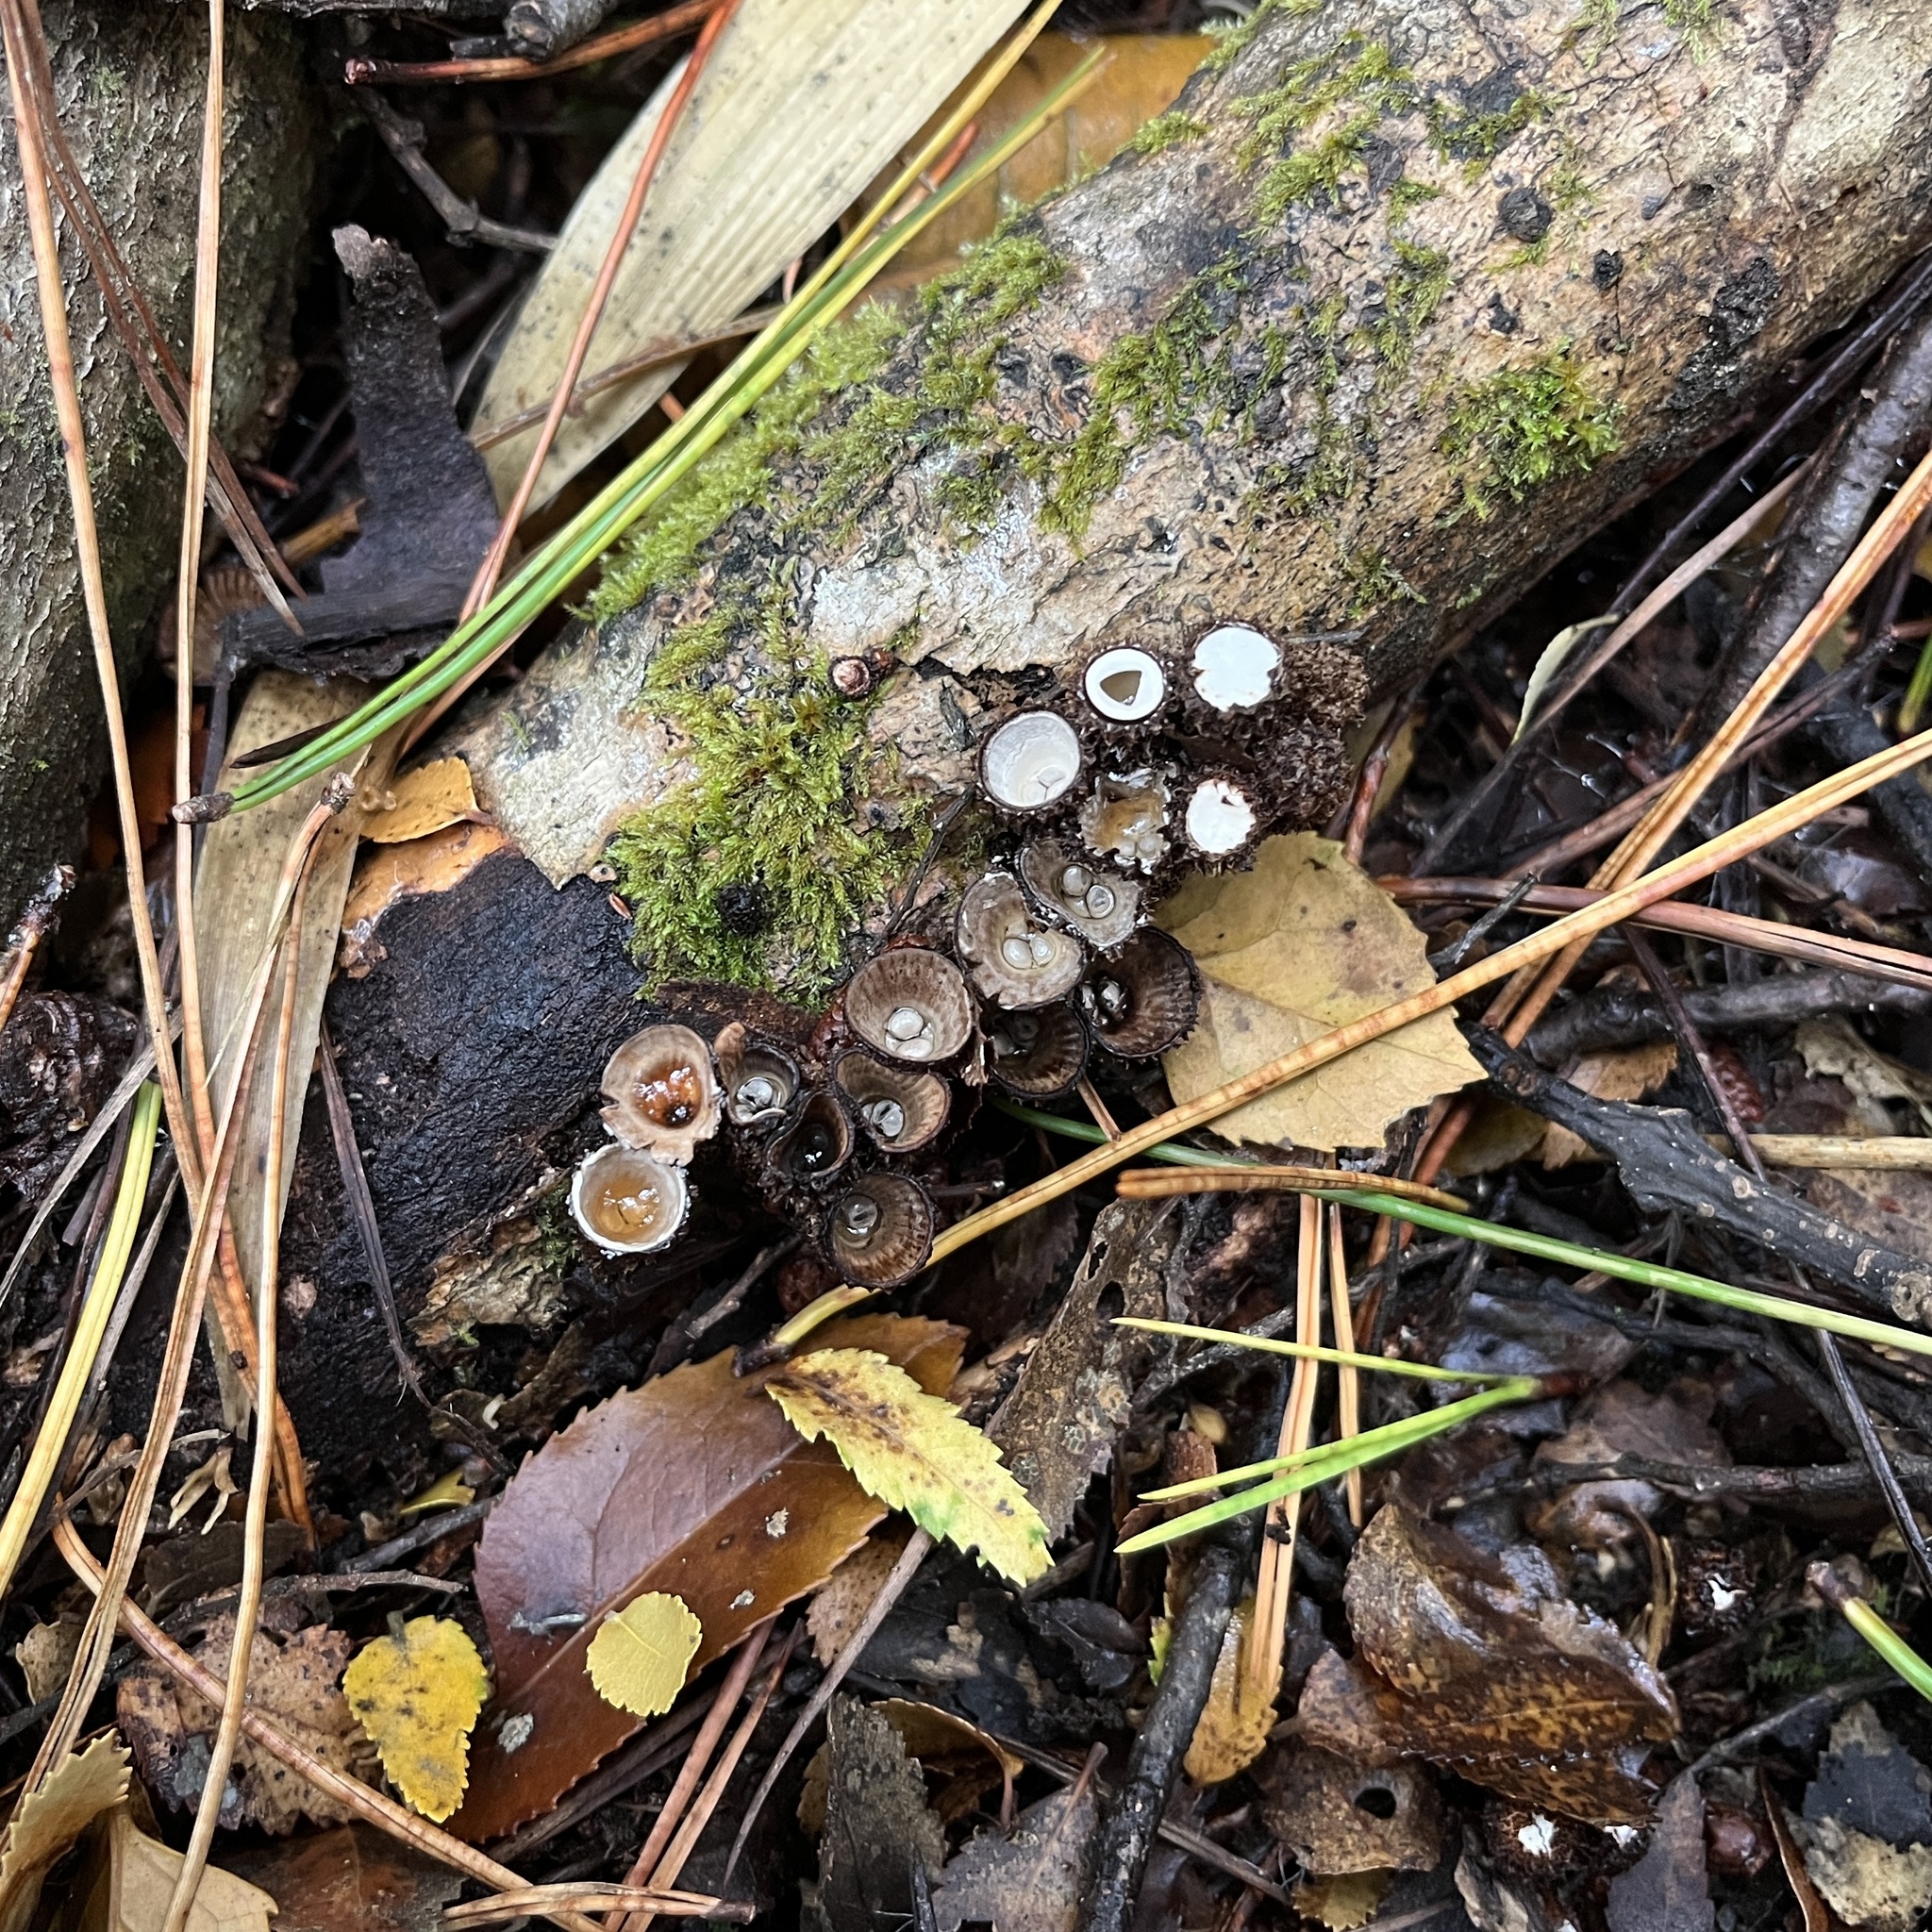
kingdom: Fungi
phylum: Basidiomycota
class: Agaricomycetes
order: Agaricales
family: Agaricaceae
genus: Cyathus
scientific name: Cyathus striatus
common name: Fluted bird's nest
